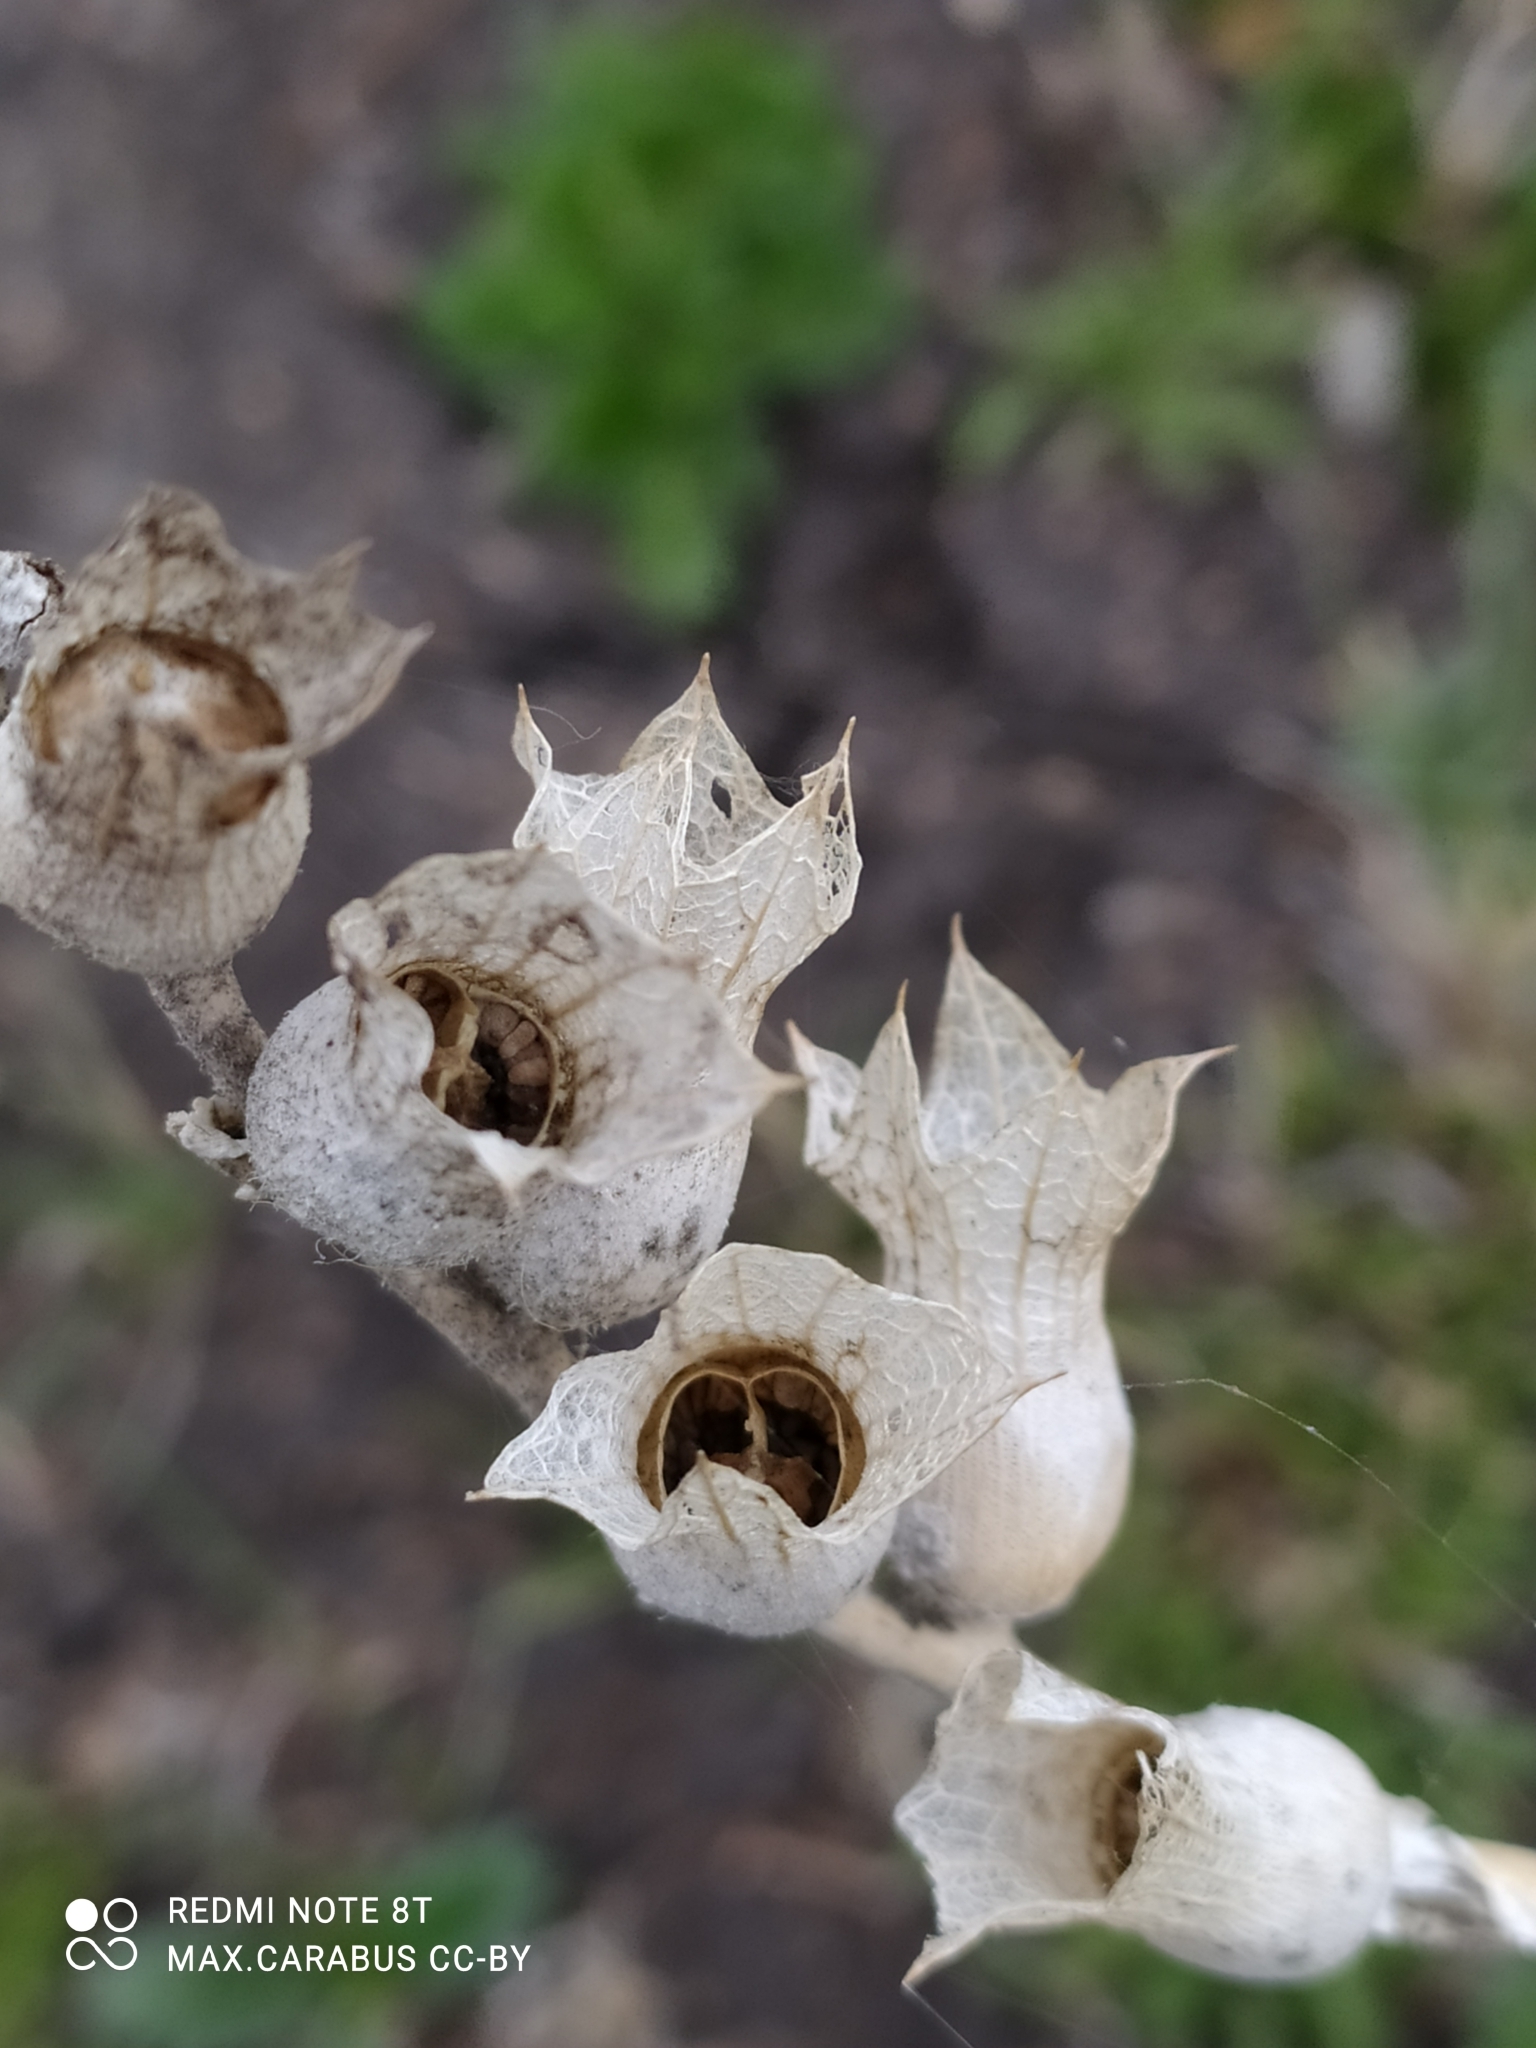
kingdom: Plantae
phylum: Tracheophyta
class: Magnoliopsida
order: Solanales
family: Solanaceae
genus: Hyoscyamus
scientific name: Hyoscyamus niger
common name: Henbane
